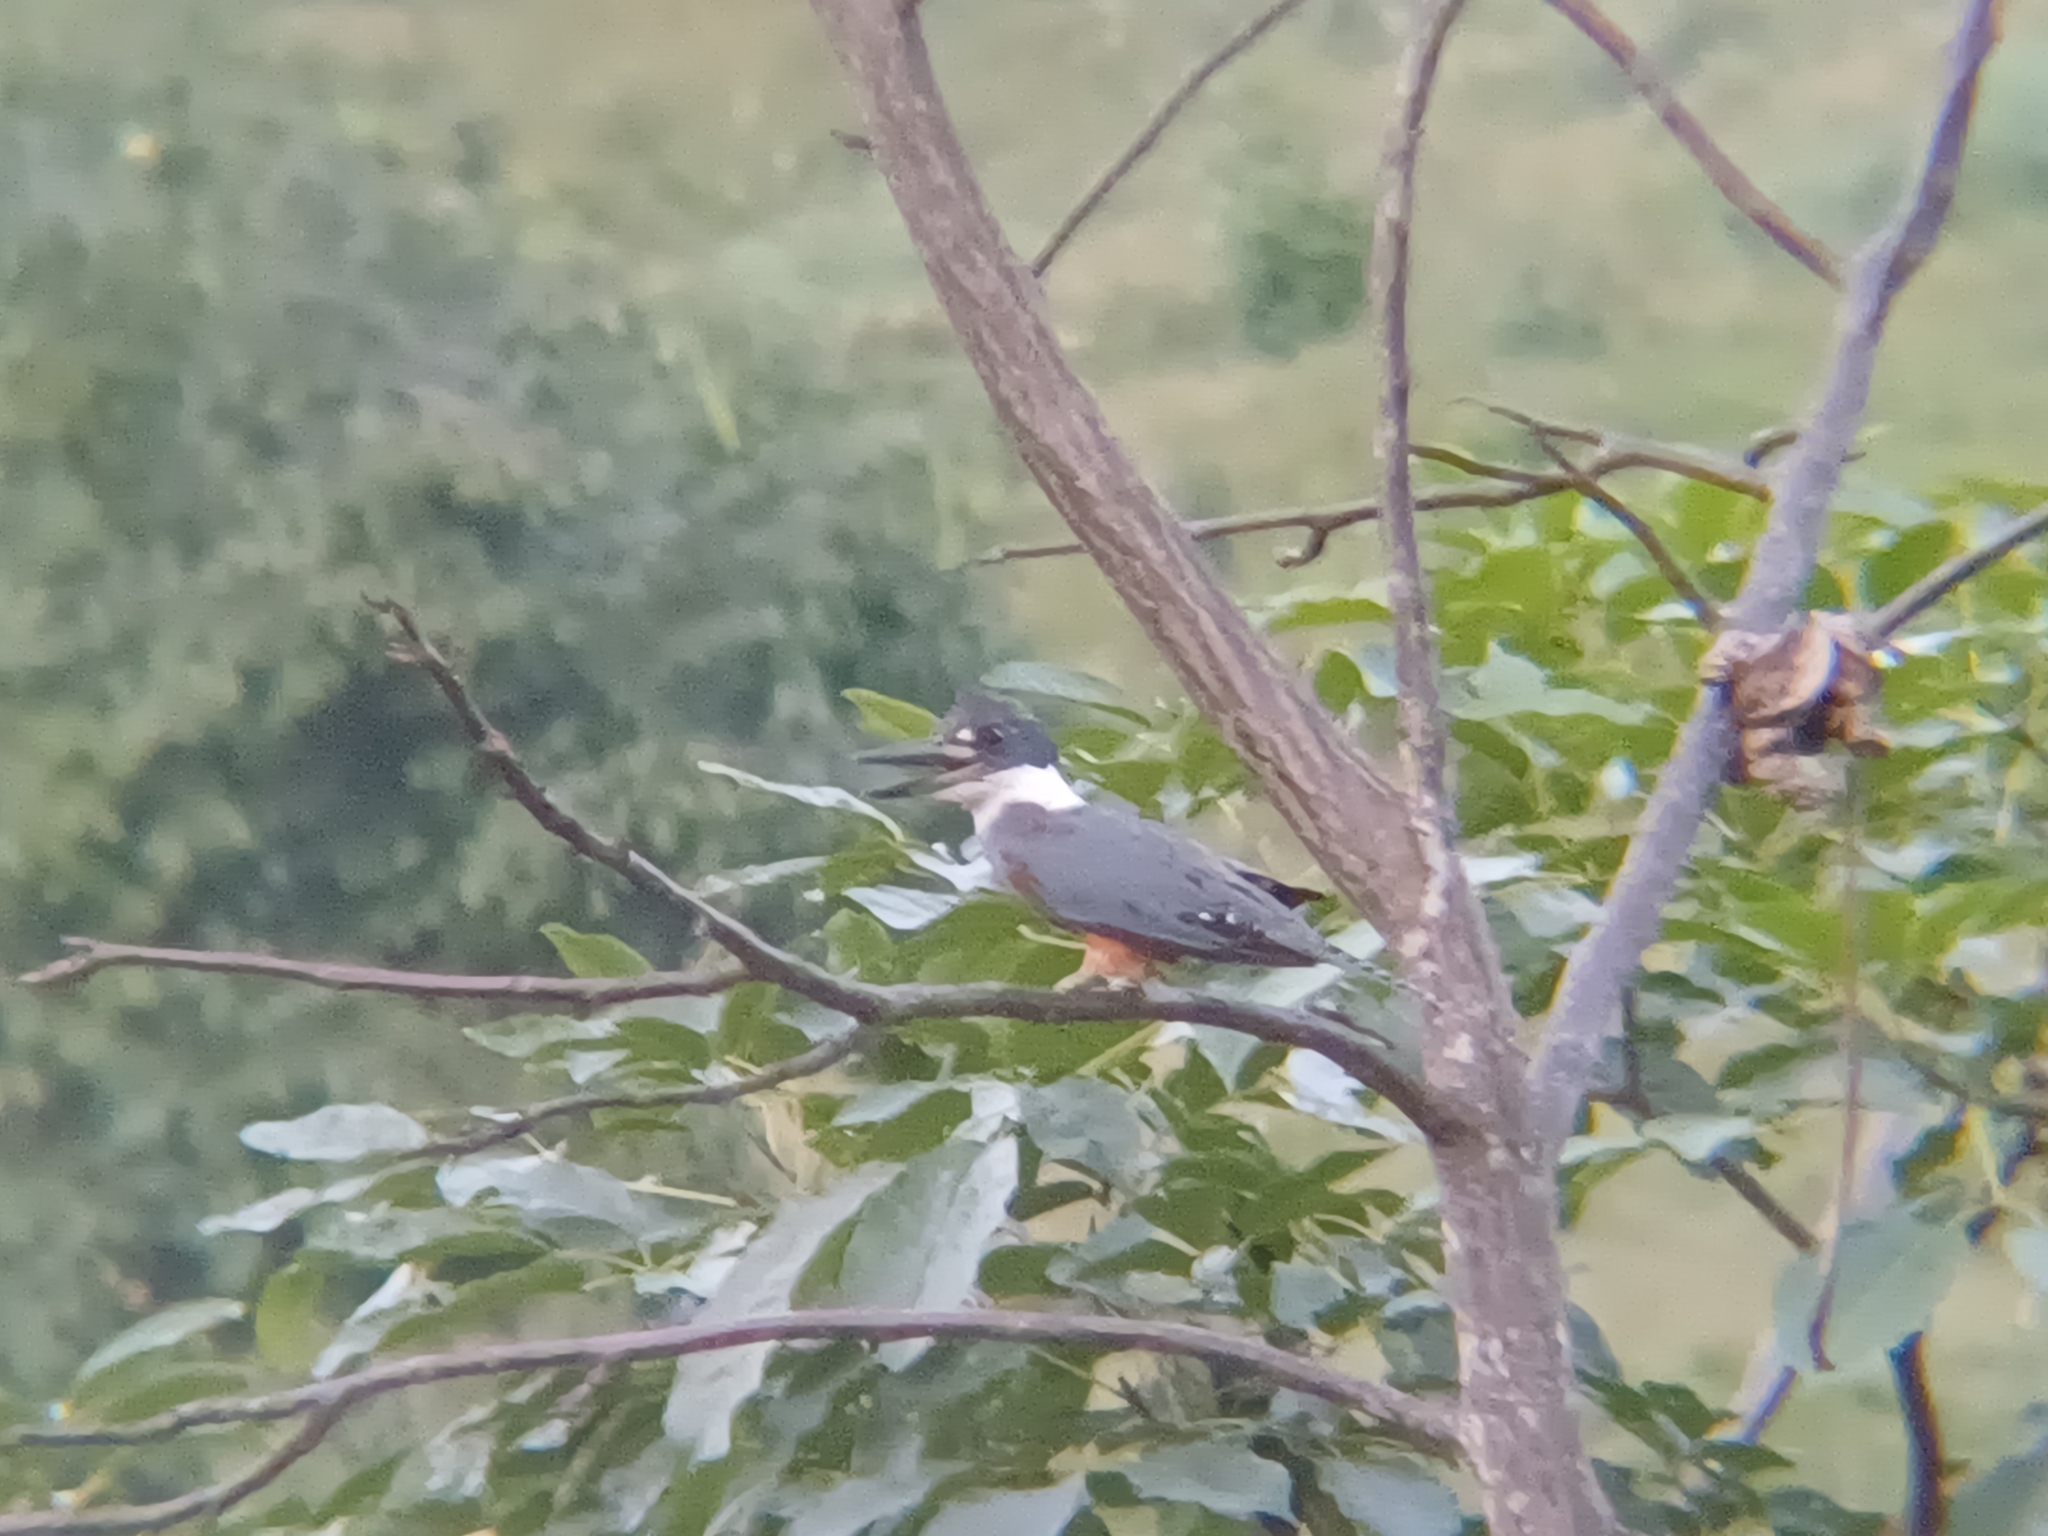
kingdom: Animalia
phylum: Chordata
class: Aves
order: Coraciiformes
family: Alcedinidae
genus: Megaceryle
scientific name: Megaceryle torquata
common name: Ringed kingfisher
